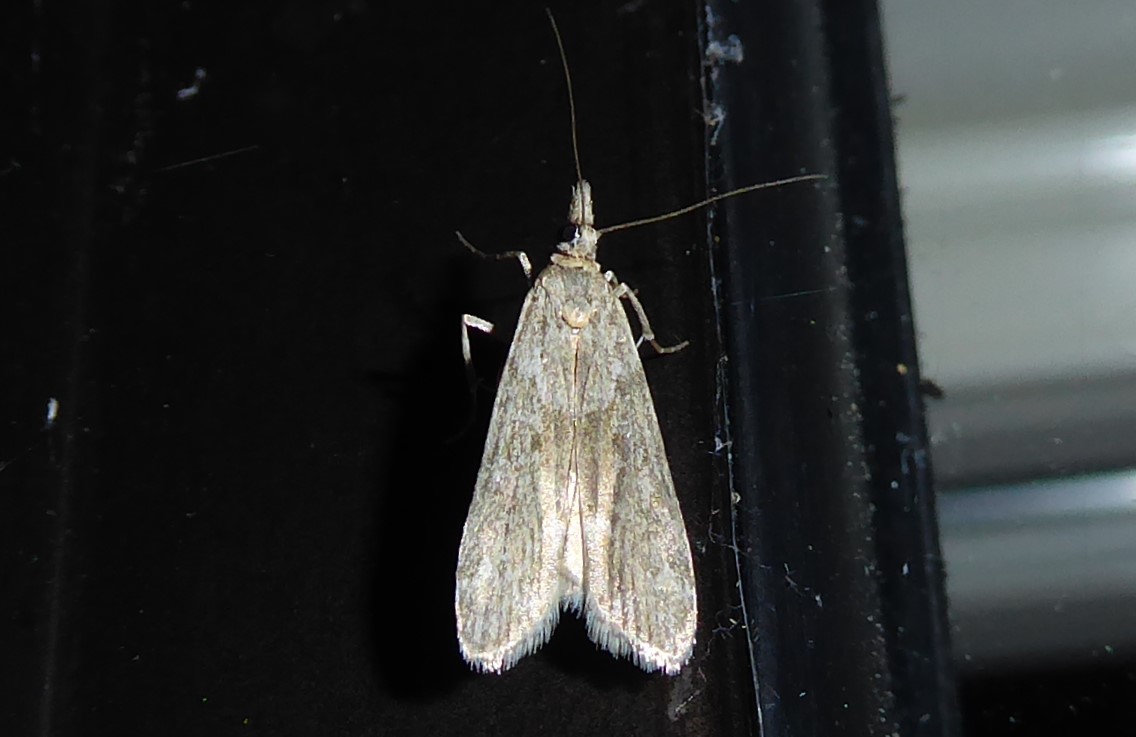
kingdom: Animalia
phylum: Arthropoda
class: Insecta
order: Lepidoptera
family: Crambidae
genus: Eudonia
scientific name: Eudonia leptalea
